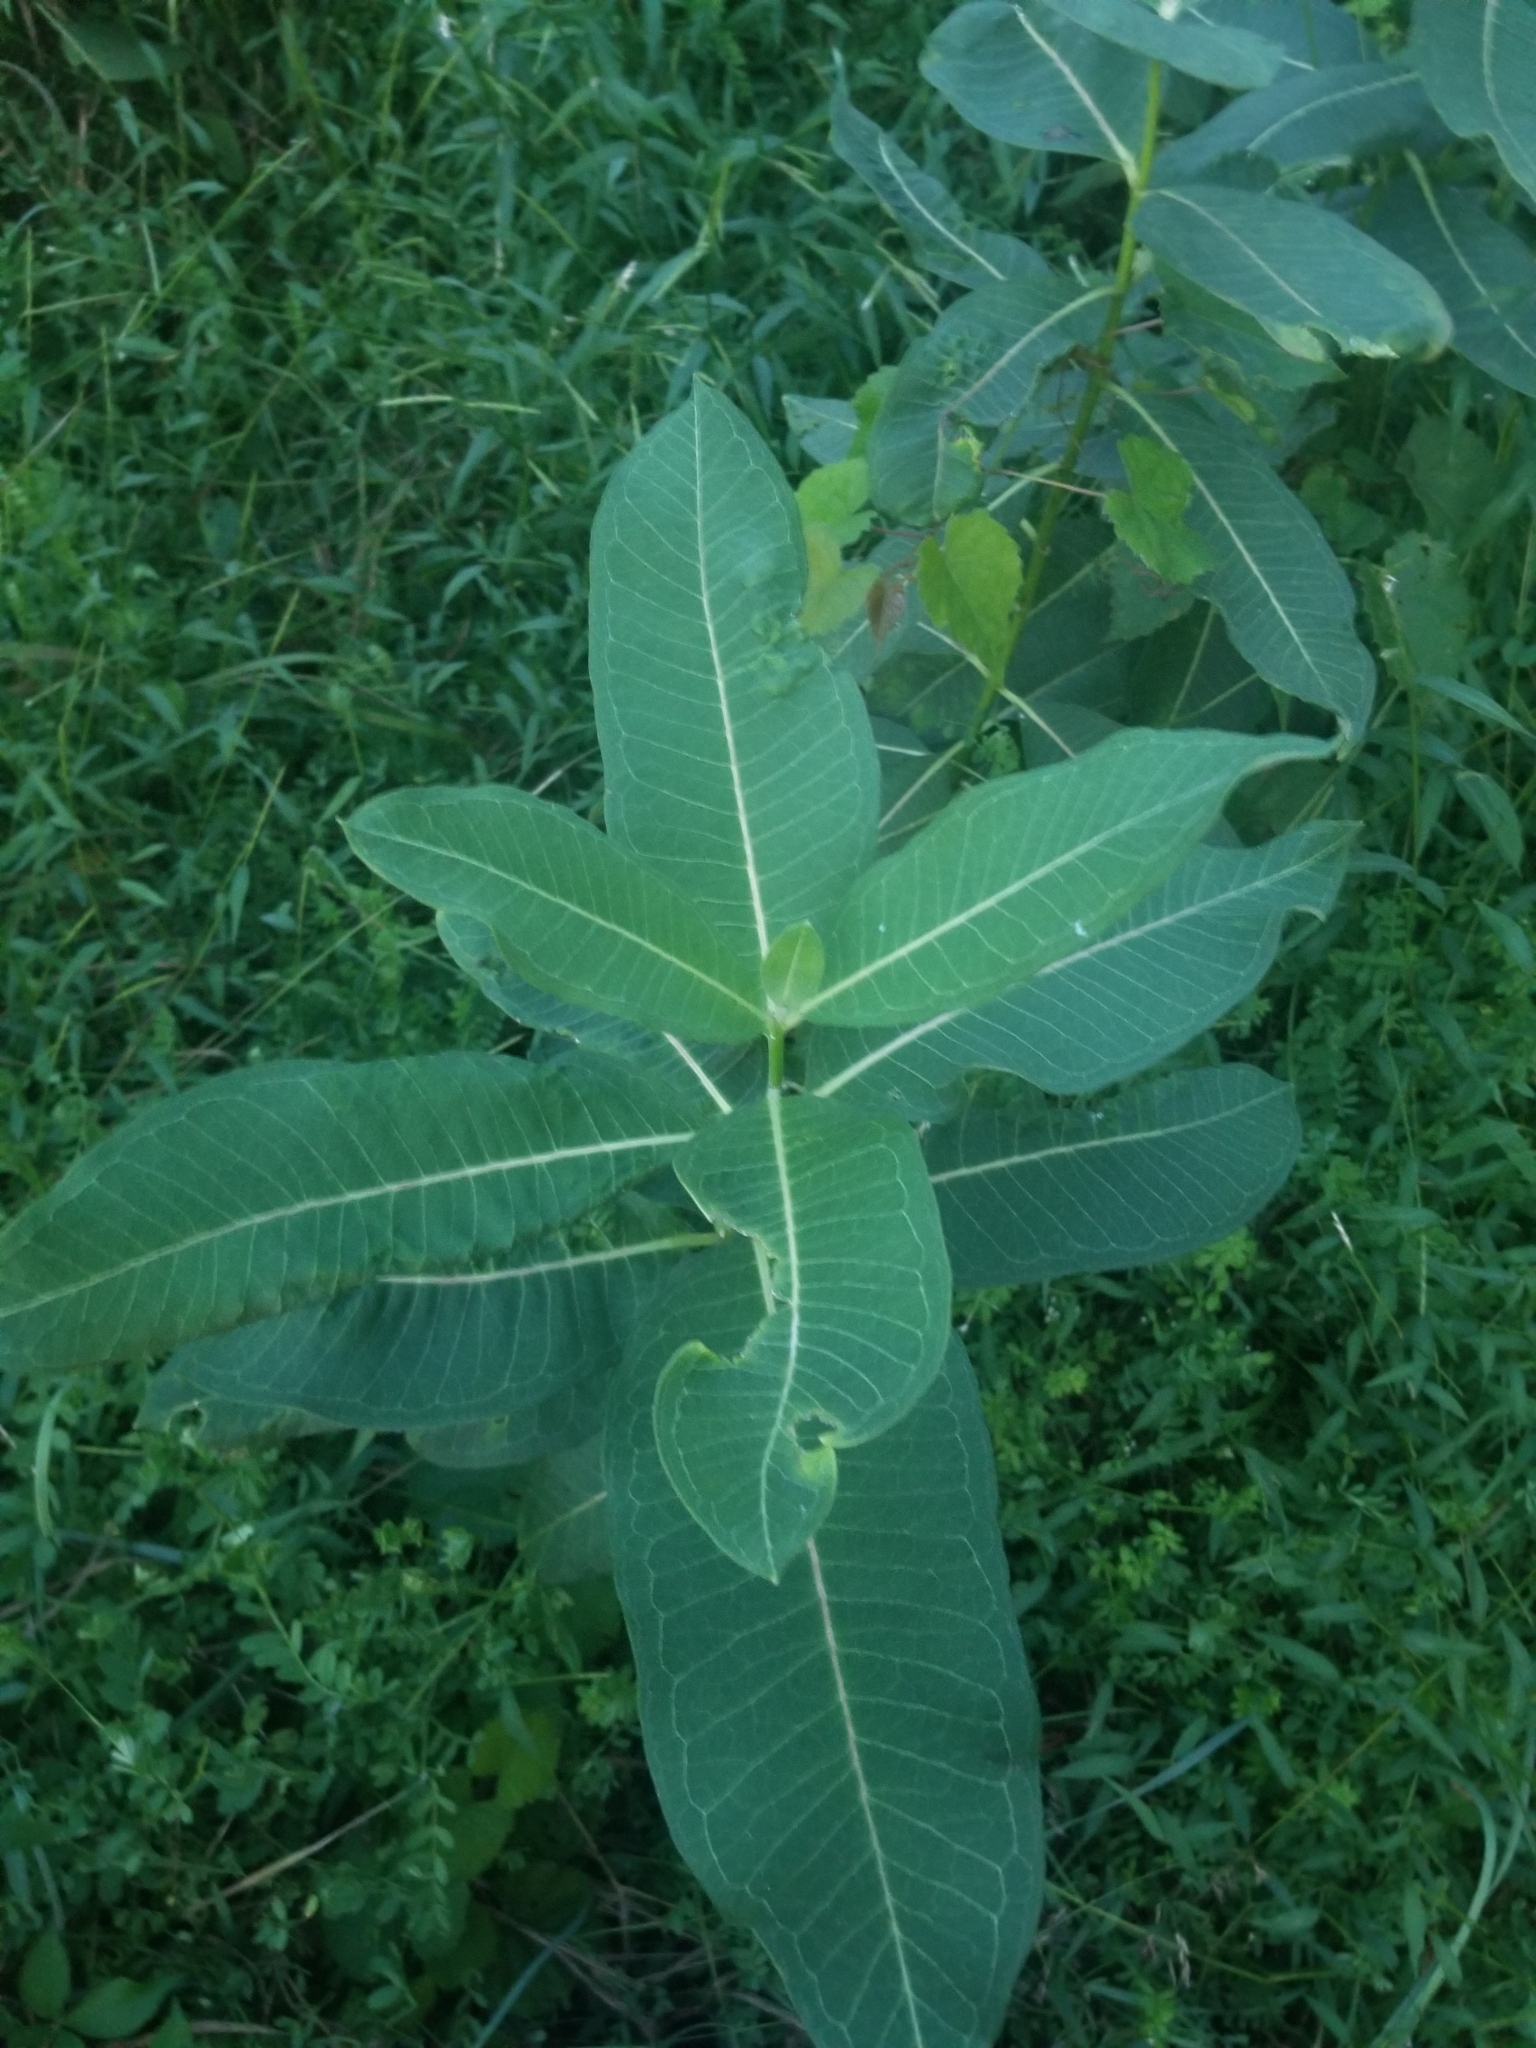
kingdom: Plantae
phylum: Tracheophyta
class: Magnoliopsida
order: Gentianales
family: Apocynaceae
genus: Asclepias
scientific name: Asclepias syriaca
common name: Common milkweed
